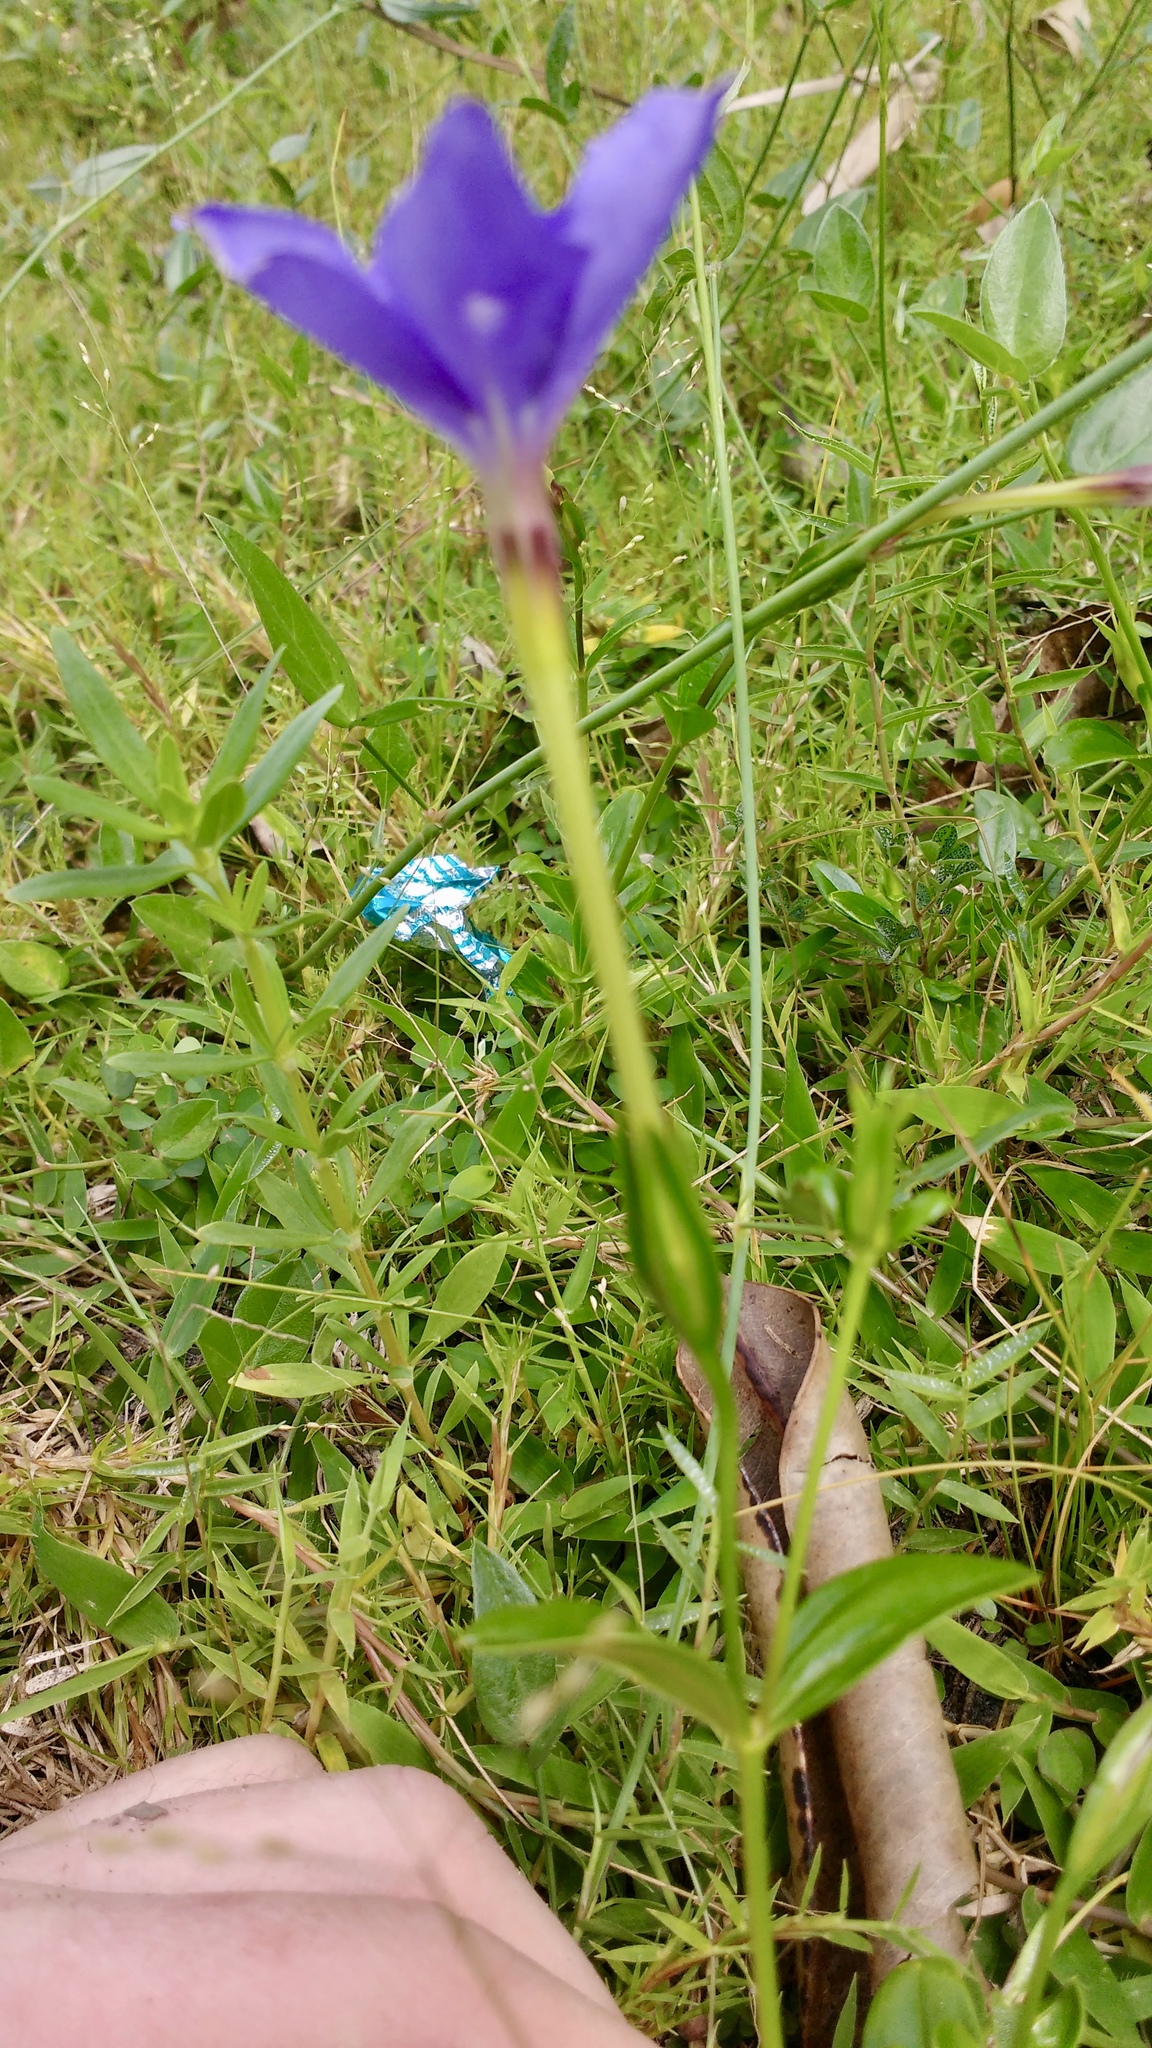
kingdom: Plantae
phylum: Tracheophyta
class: Magnoliopsida
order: Gentianales
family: Gentianaceae
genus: Tachiadenus
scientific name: Tachiadenus carinatus
